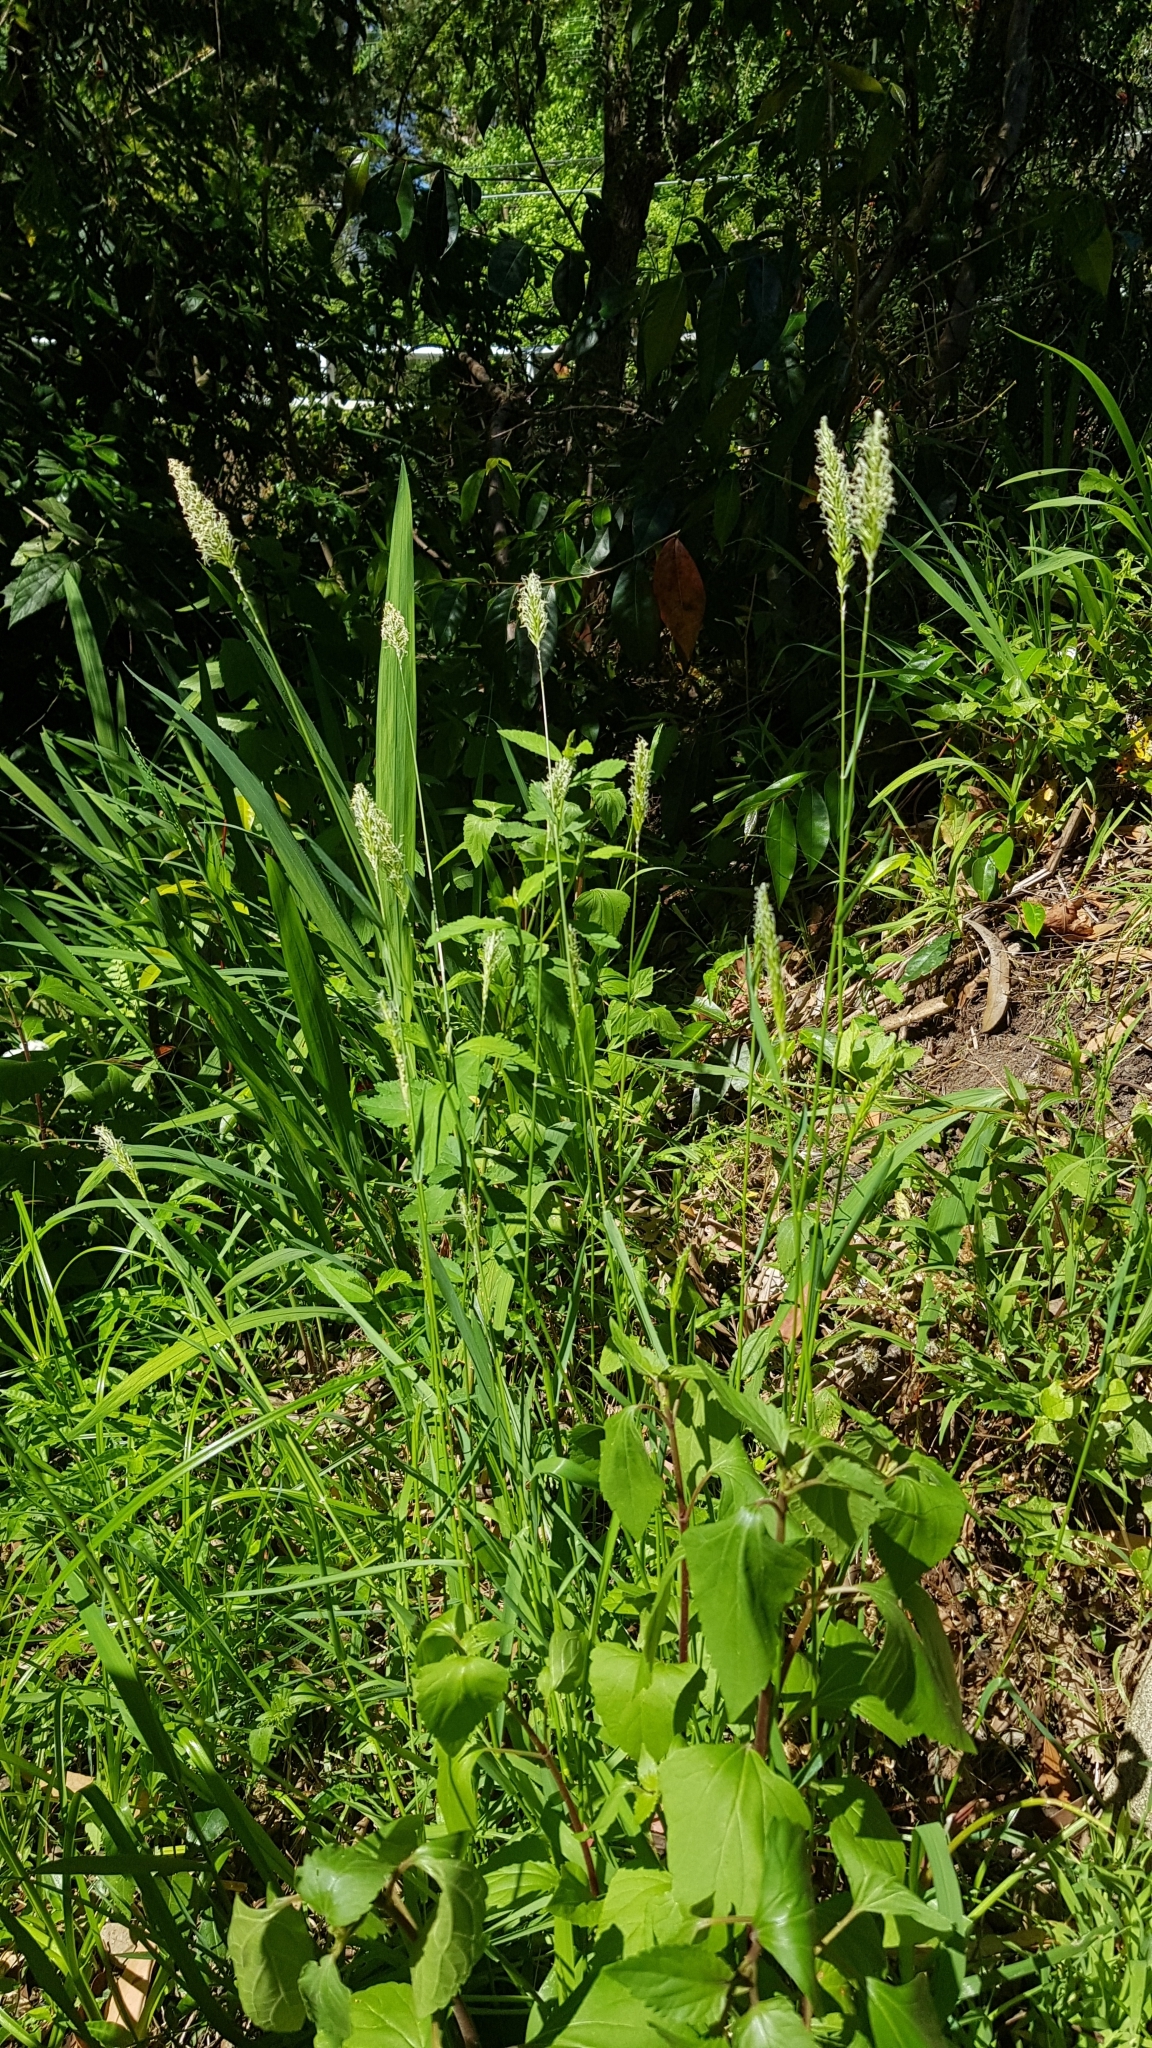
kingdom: Plantae
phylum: Tracheophyta
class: Liliopsida
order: Poales
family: Poaceae
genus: Anthoxanthum
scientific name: Anthoxanthum odoratum
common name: Sweet vernalgrass
